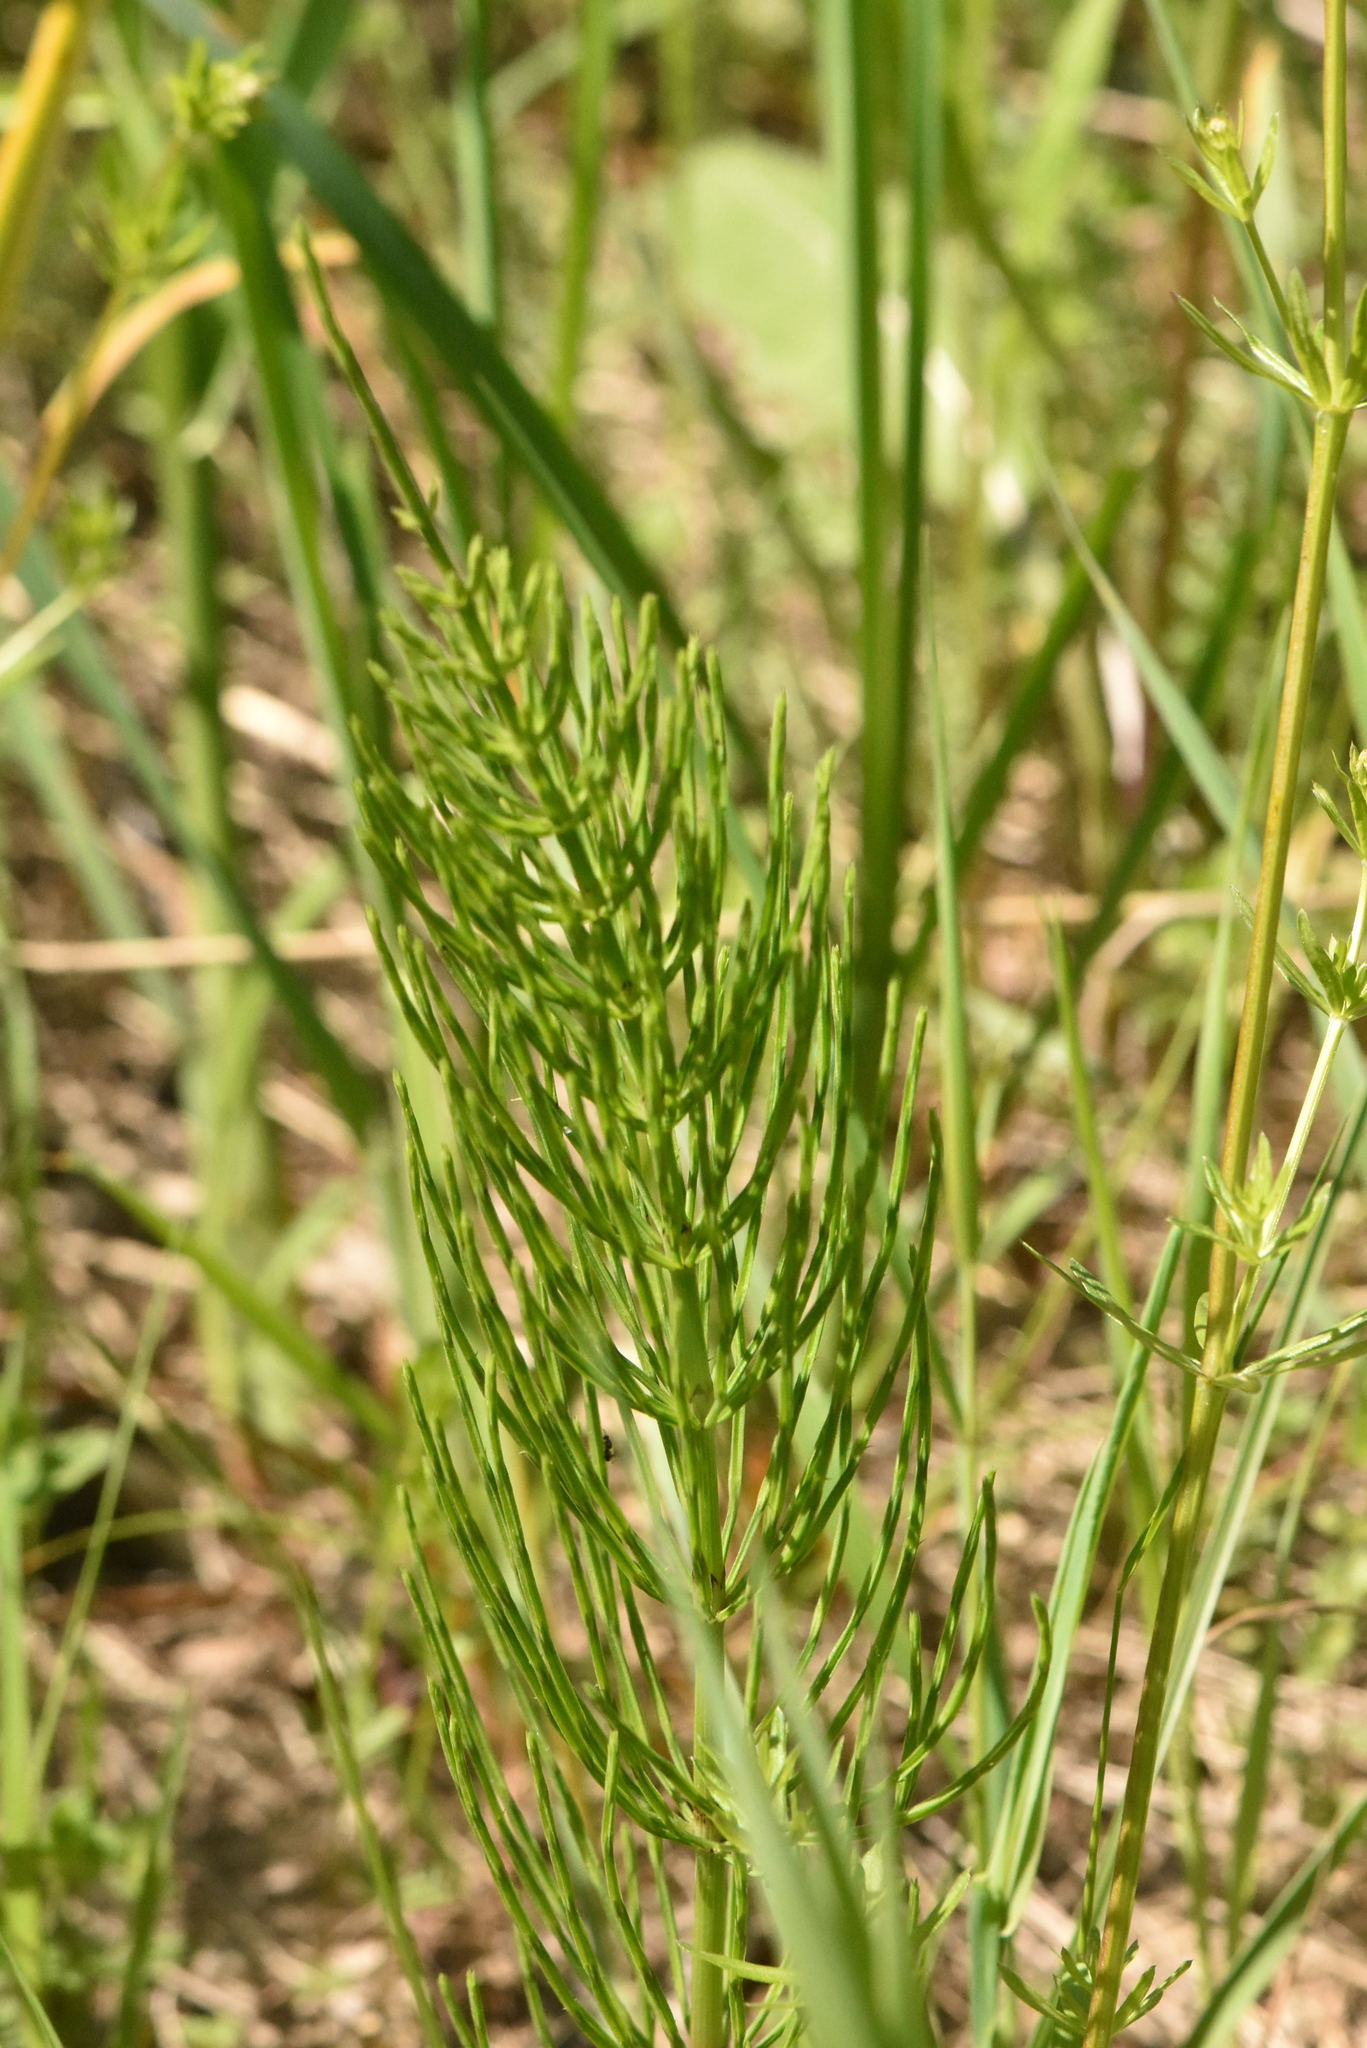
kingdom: Plantae
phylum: Tracheophyta
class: Polypodiopsida
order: Equisetales
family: Equisetaceae
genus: Equisetum
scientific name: Equisetum arvense
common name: Field horsetail
